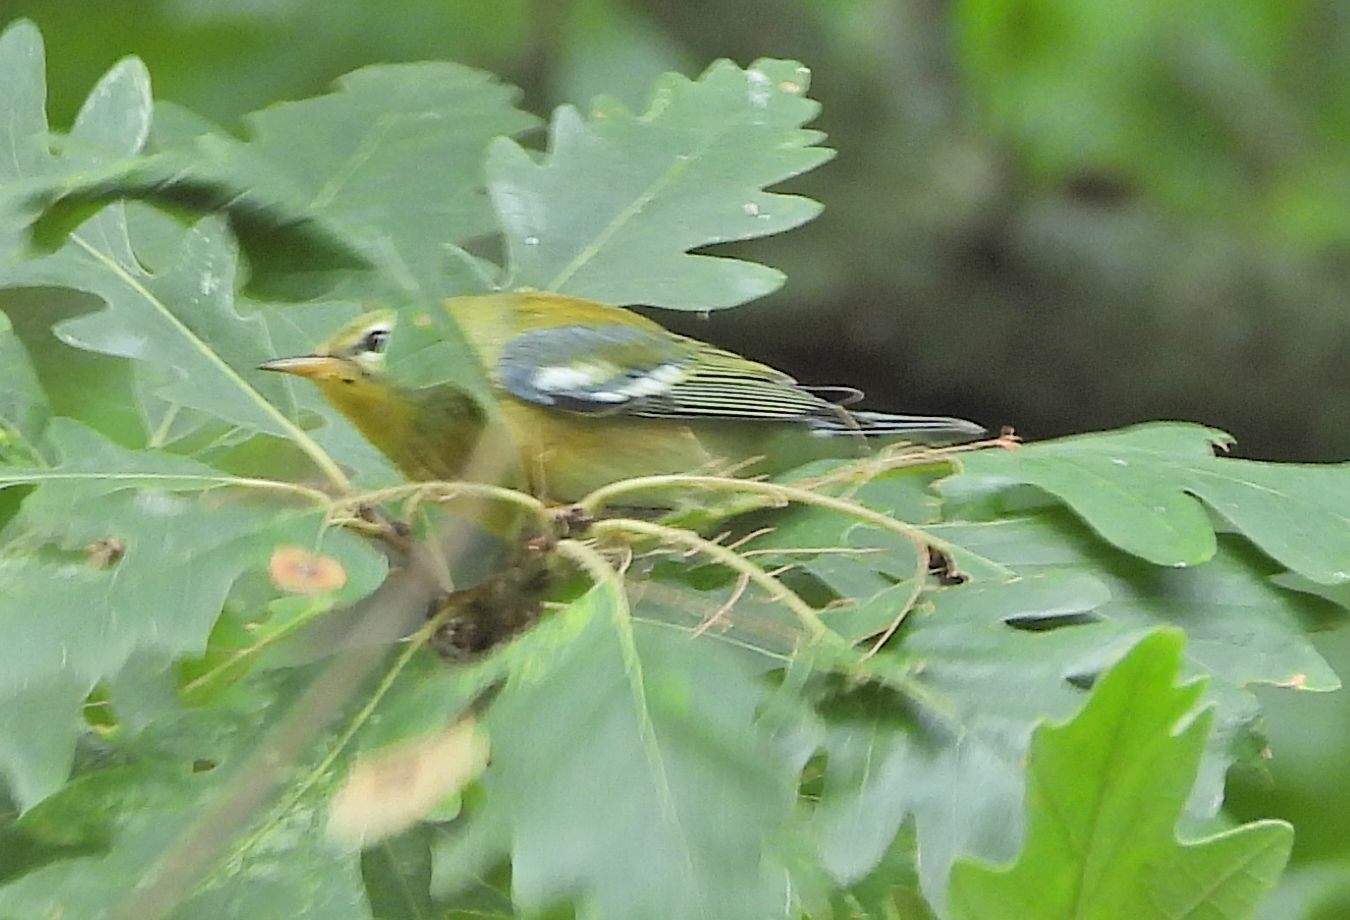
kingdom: Animalia
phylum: Chordata
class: Aves
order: Passeriformes
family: Parulidae
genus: Setophaga
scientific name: Setophaga americana
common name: Northern parula
